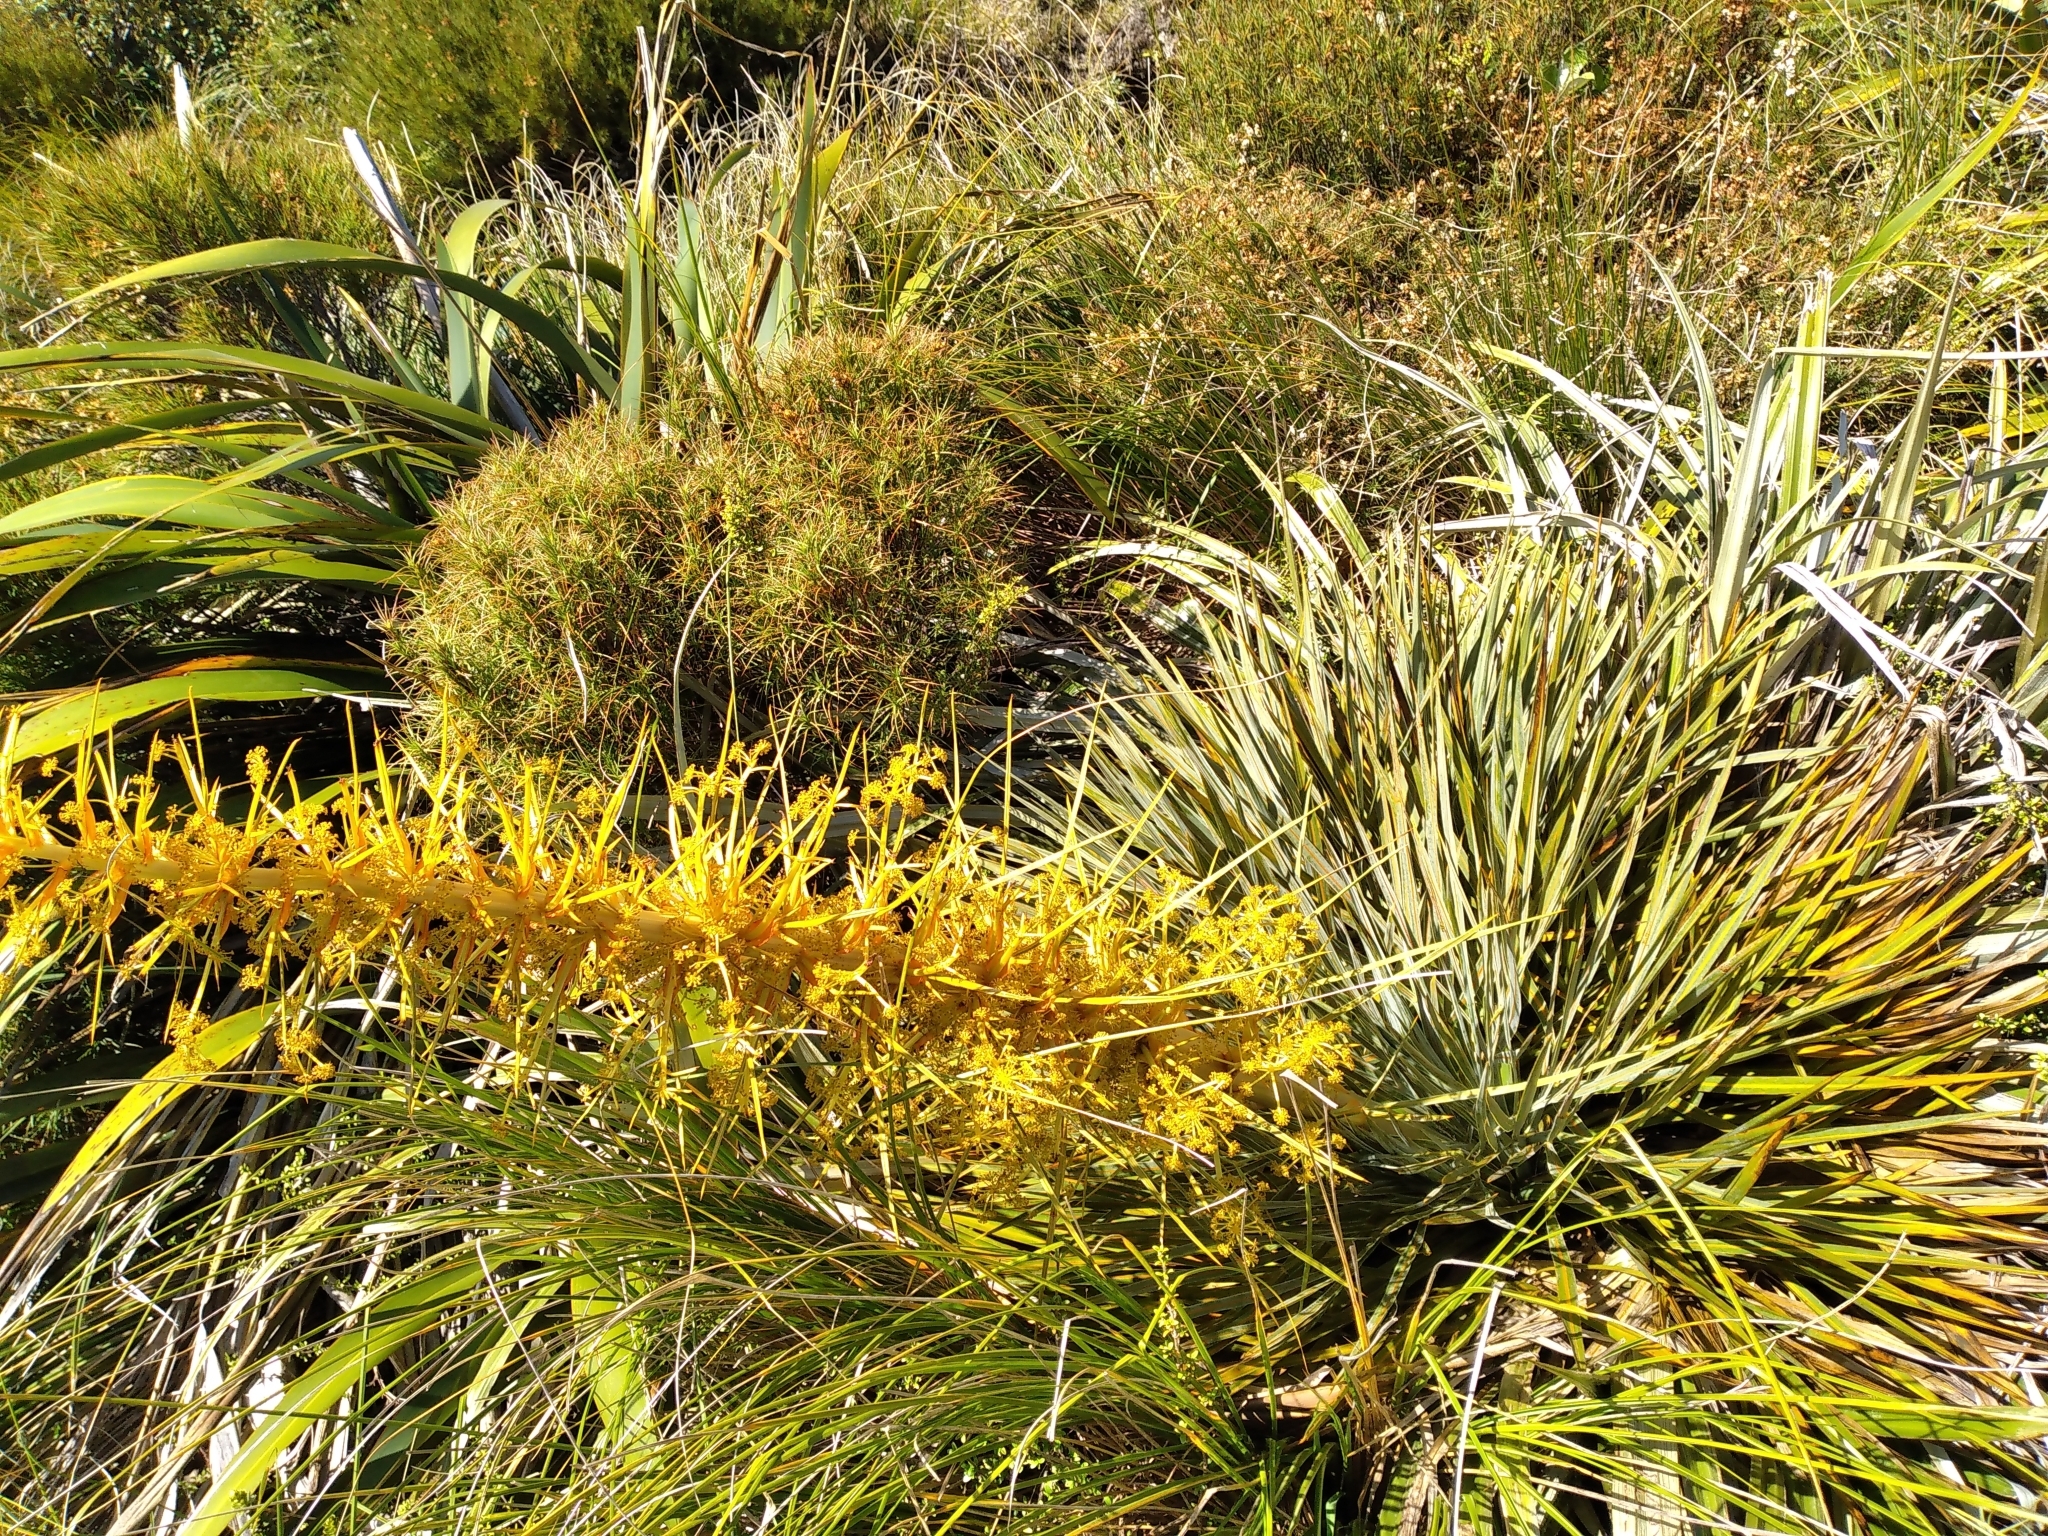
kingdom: Plantae
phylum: Tracheophyta
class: Magnoliopsida
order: Apiales
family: Apiaceae
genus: Aciphylla
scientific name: Aciphylla colensoi
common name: Colenso's spaniard
